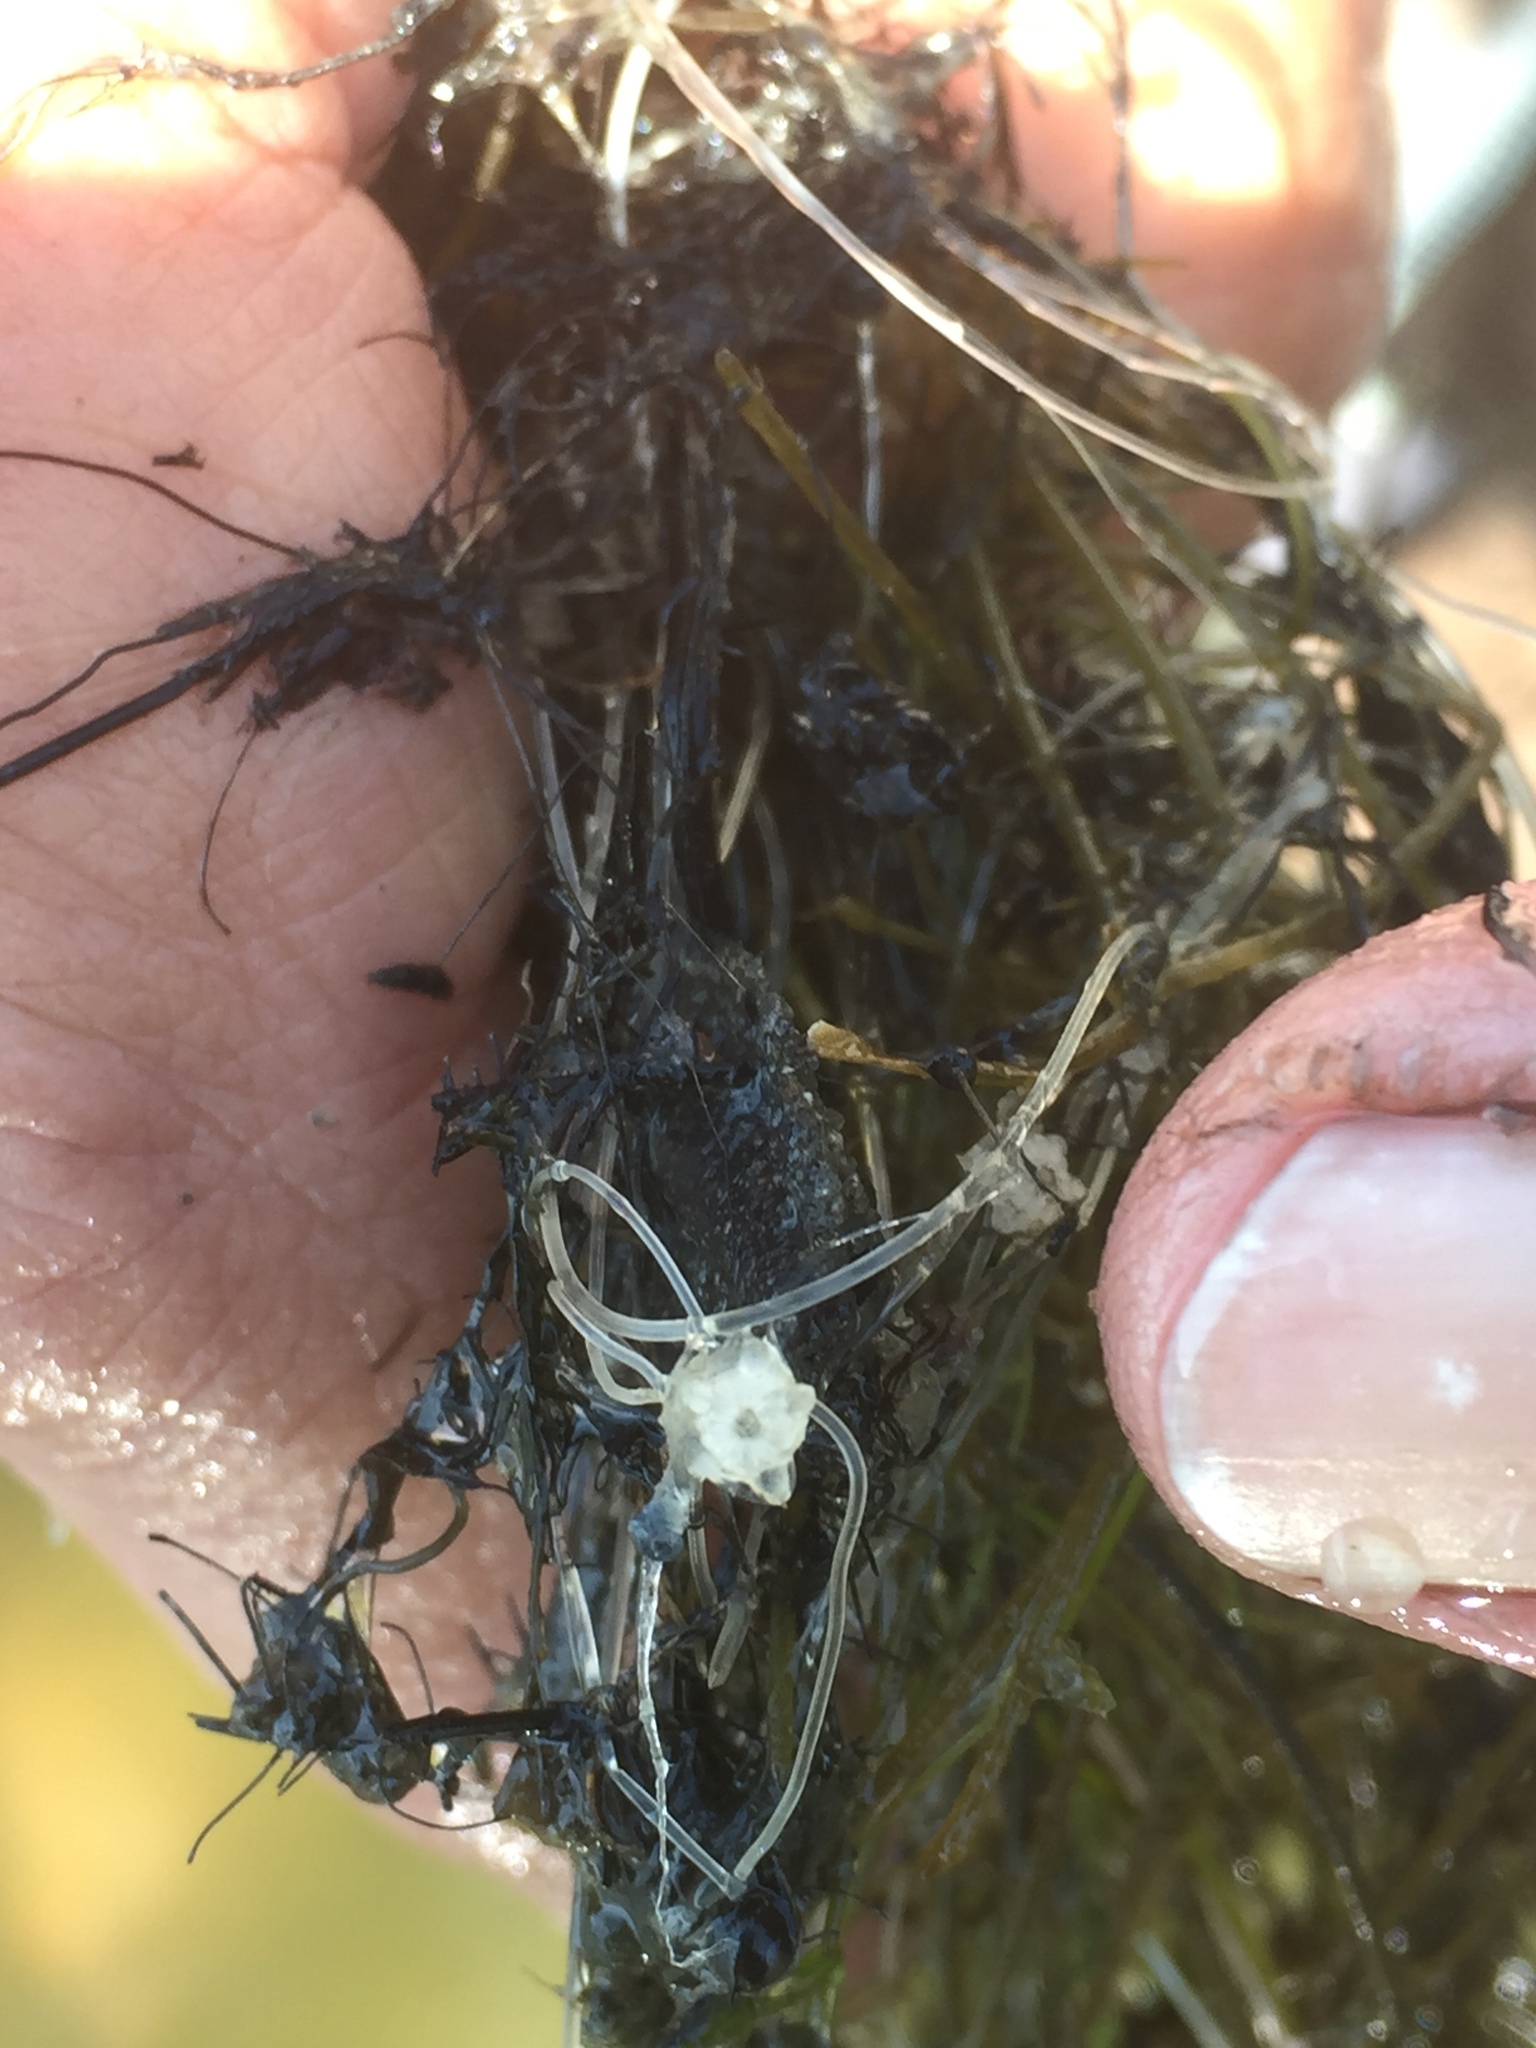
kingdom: Plantae
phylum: Charophyta
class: Charophyceae
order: Charales
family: Characeae
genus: Nitellopsis
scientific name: Nitellopsis obtusa
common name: Starry stonewort
